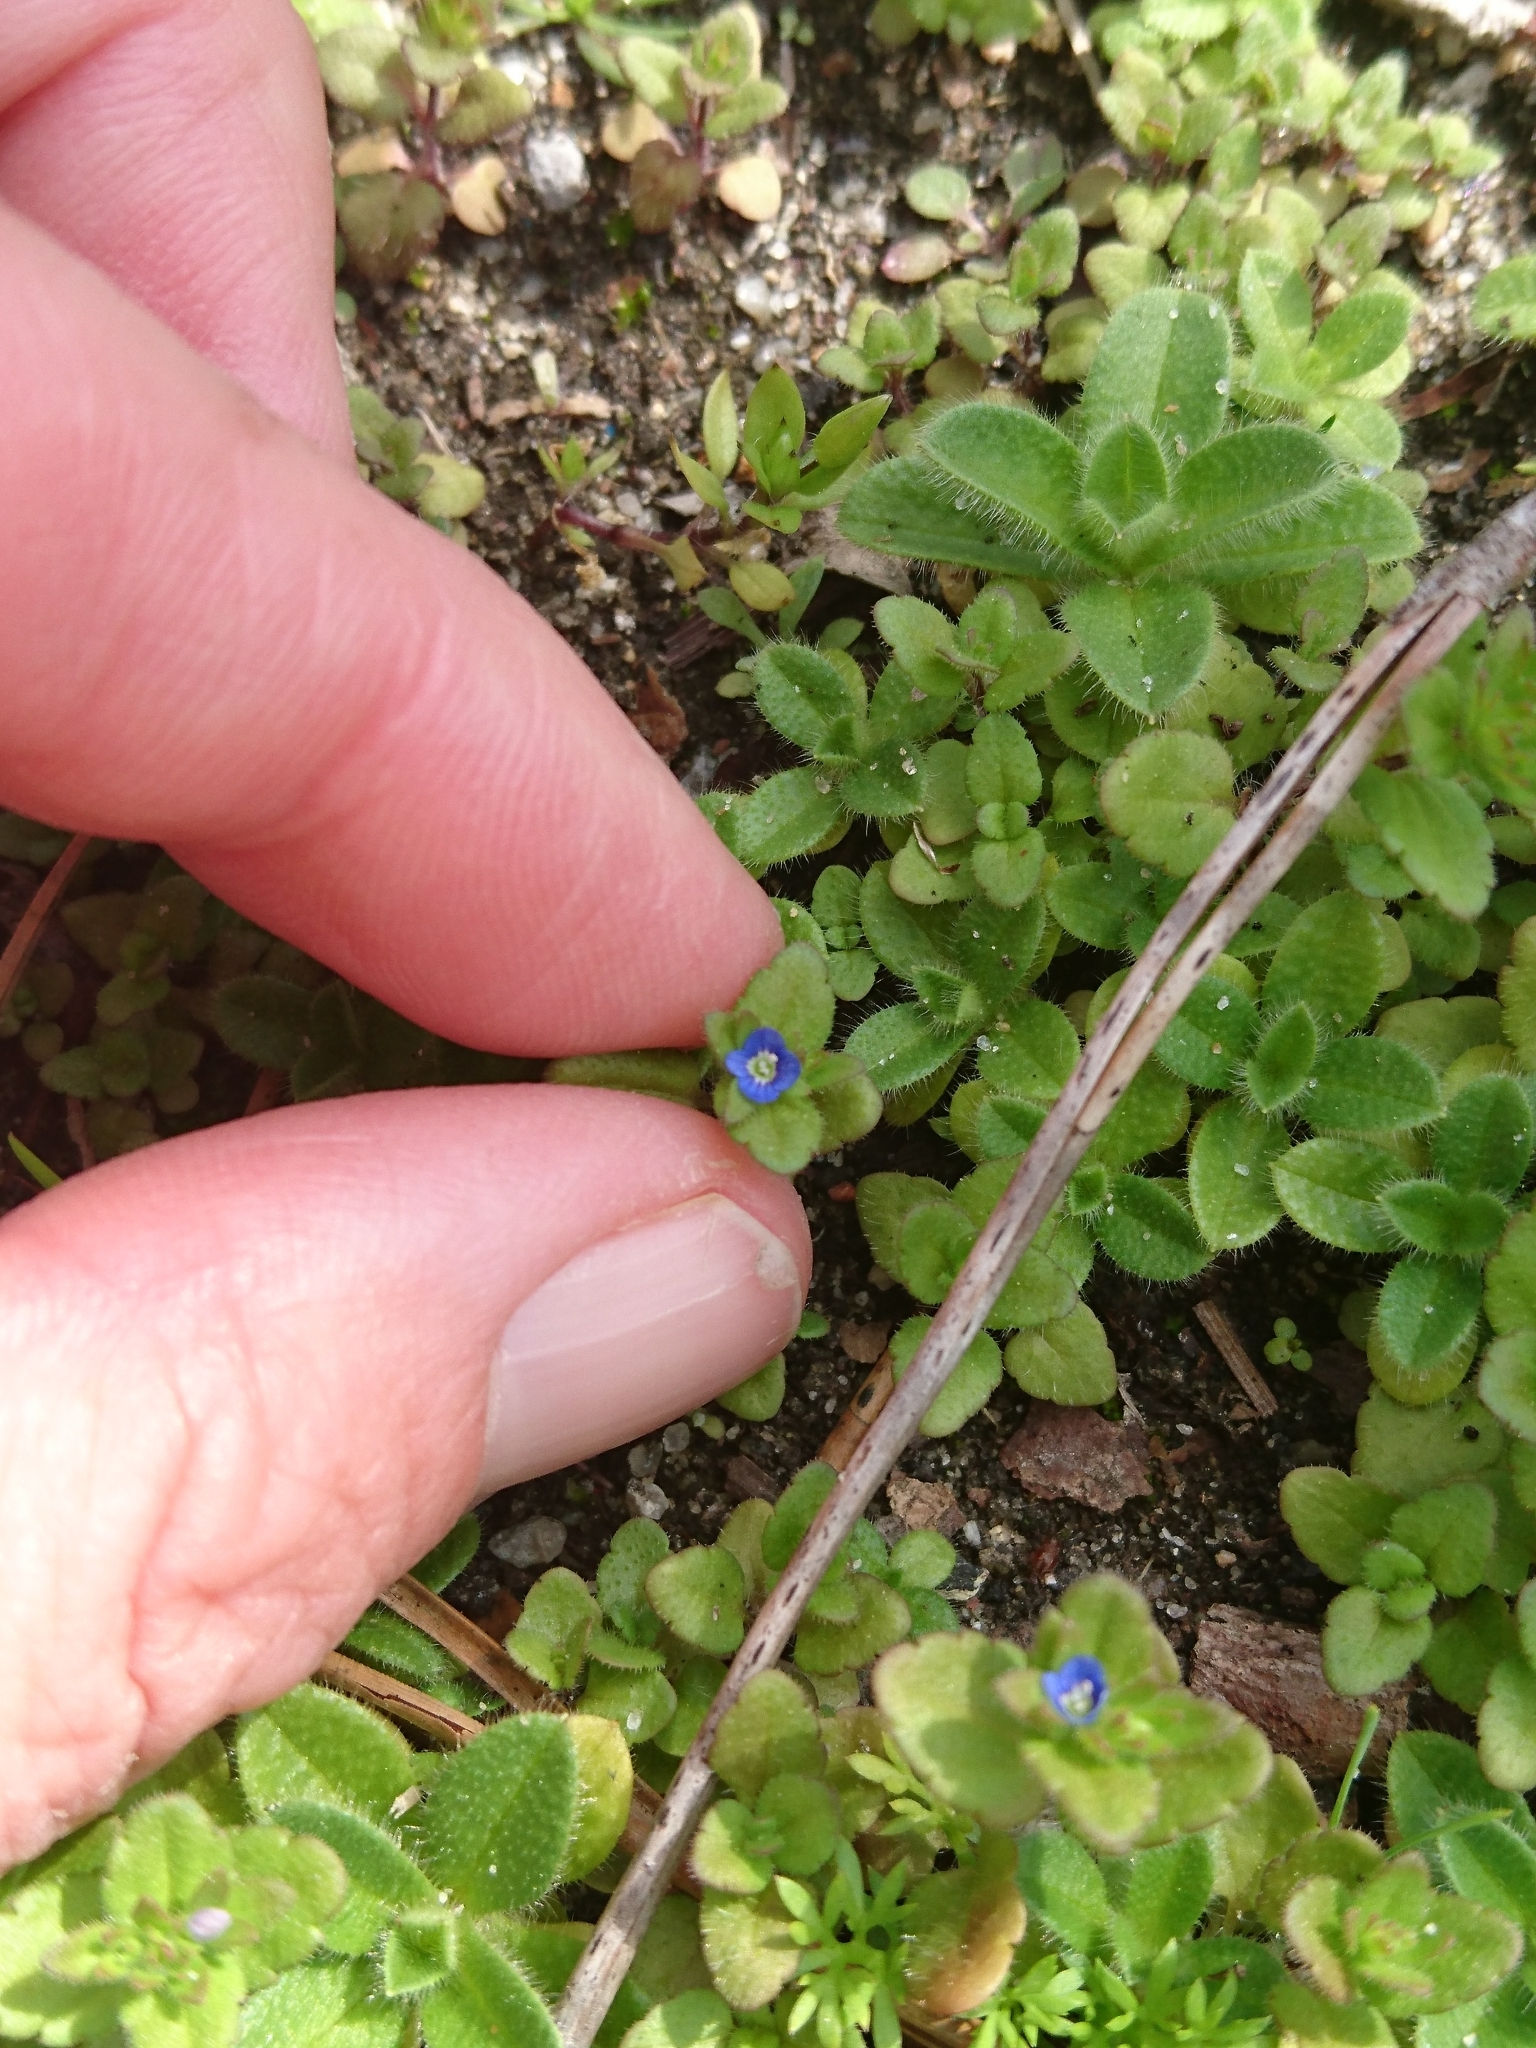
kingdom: Plantae
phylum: Tracheophyta
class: Magnoliopsida
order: Lamiales
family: Plantaginaceae
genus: Veronica
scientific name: Veronica arvensis
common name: Corn speedwell
